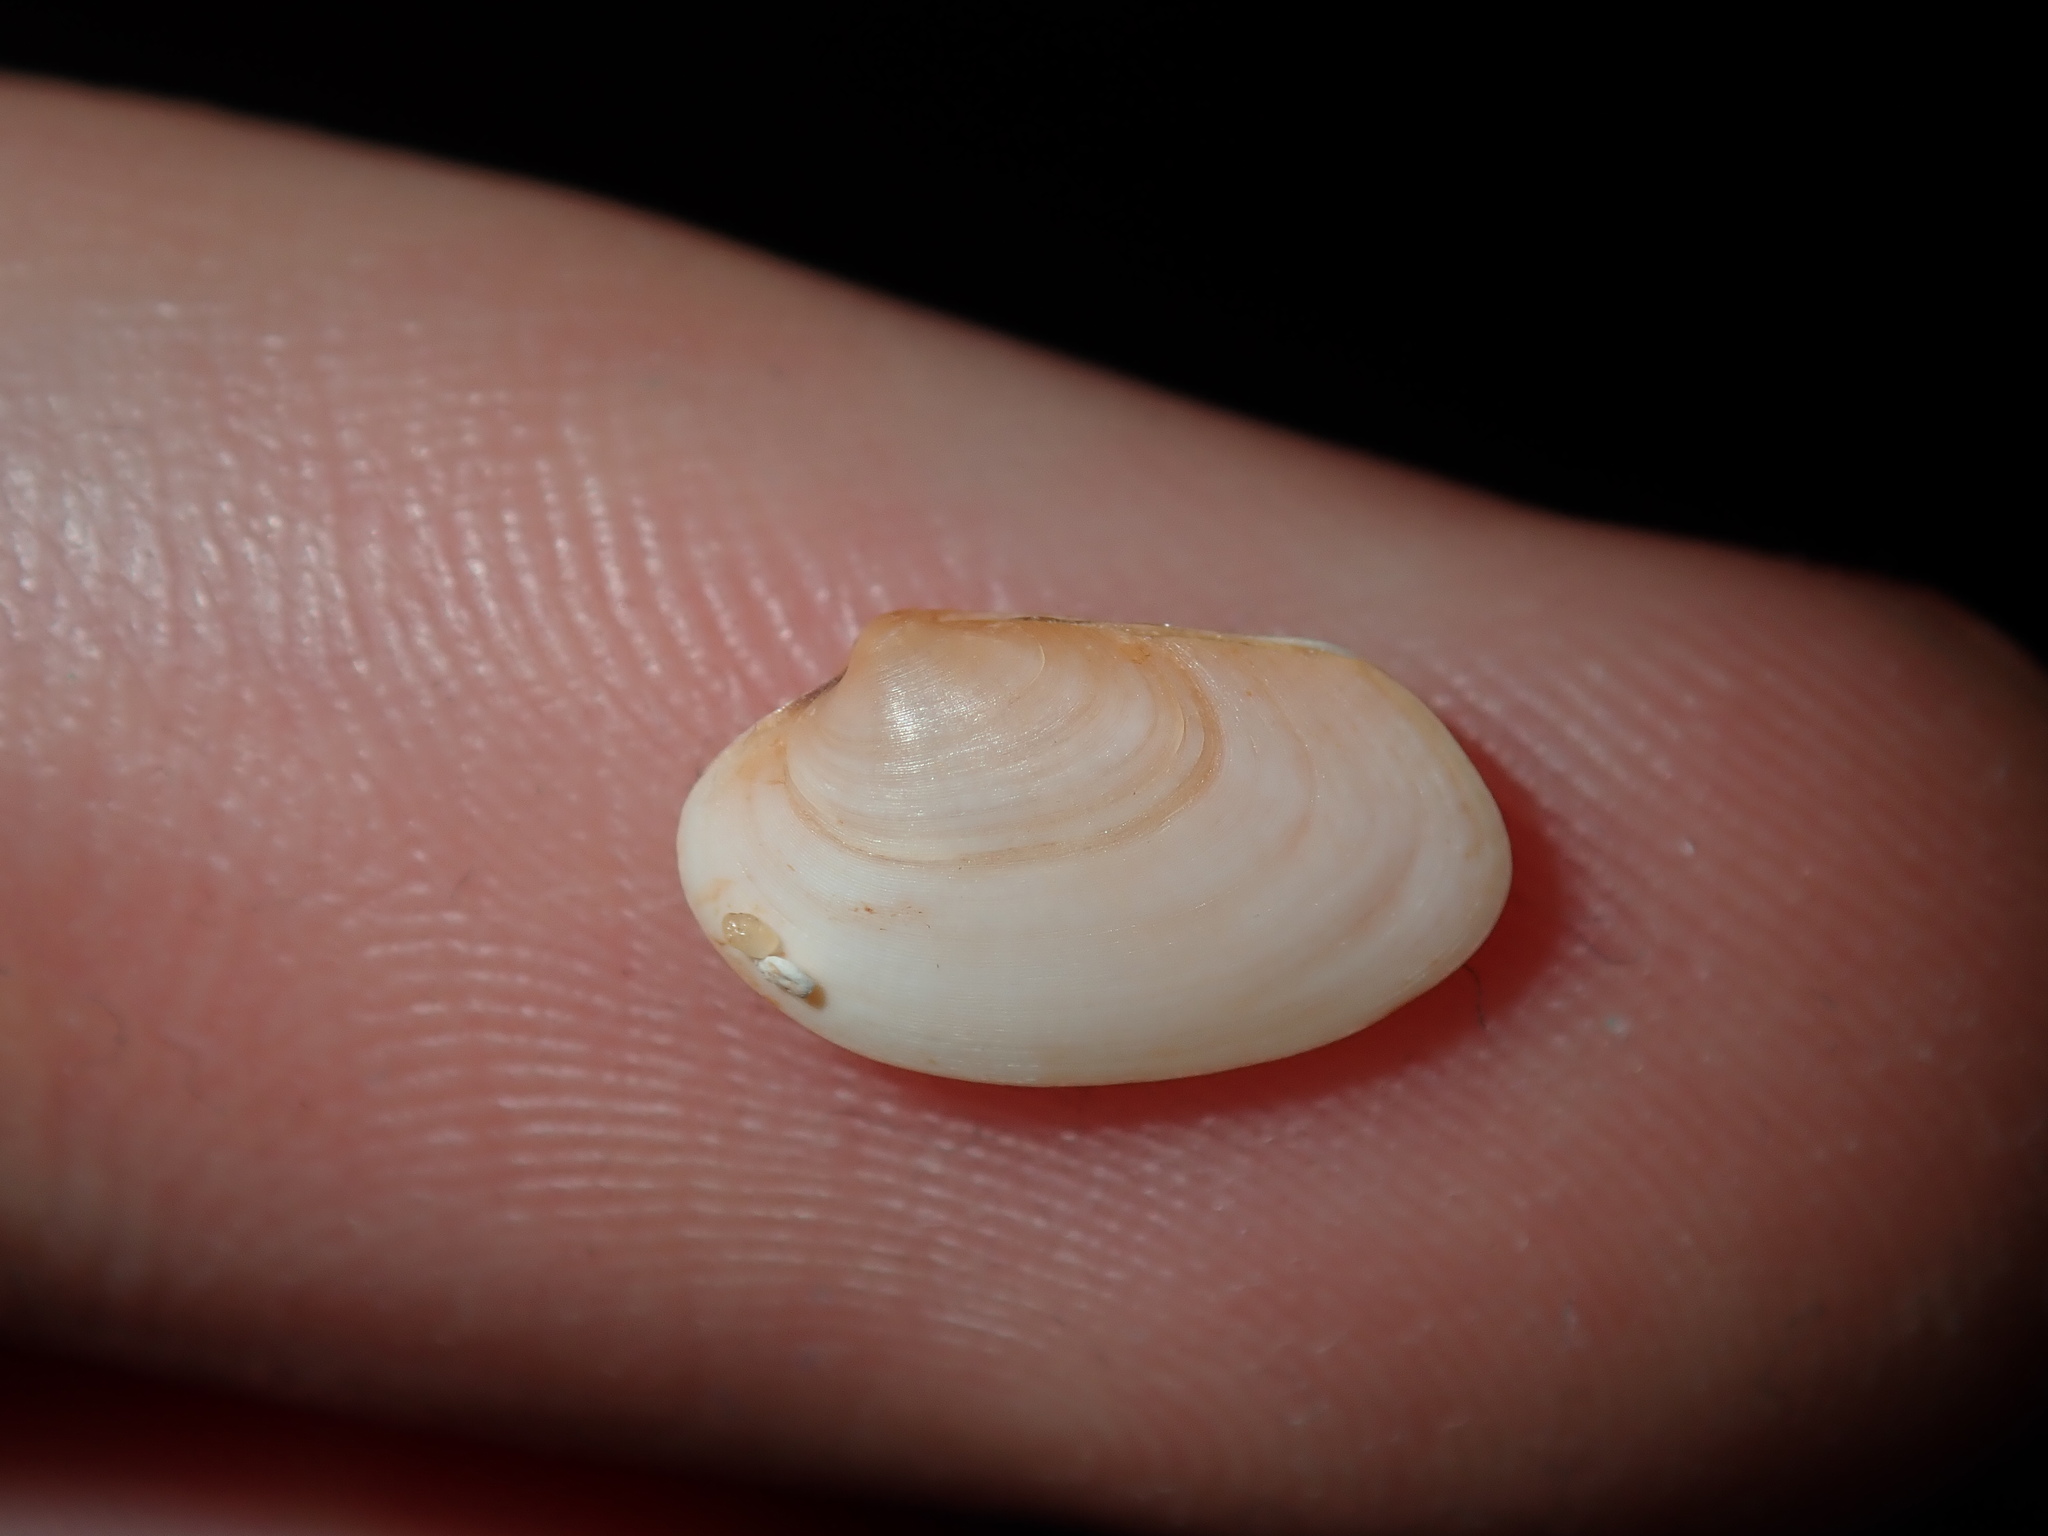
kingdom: Animalia
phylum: Mollusca
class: Bivalvia
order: Venerida
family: Veneridae
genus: Venerupis
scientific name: Venerupis anomala
